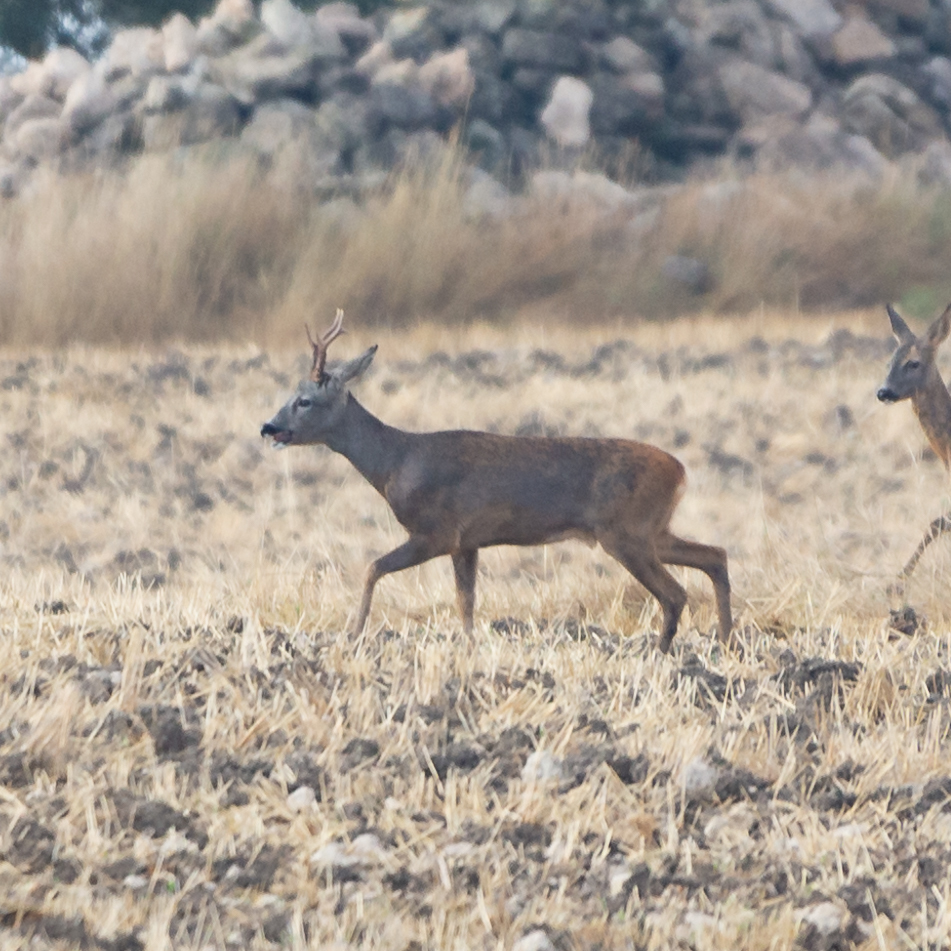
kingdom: Animalia
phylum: Chordata
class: Mammalia
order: Artiodactyla
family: Cervidae
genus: Capreolus
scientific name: Capreolus capreolus
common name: Western roe deer
